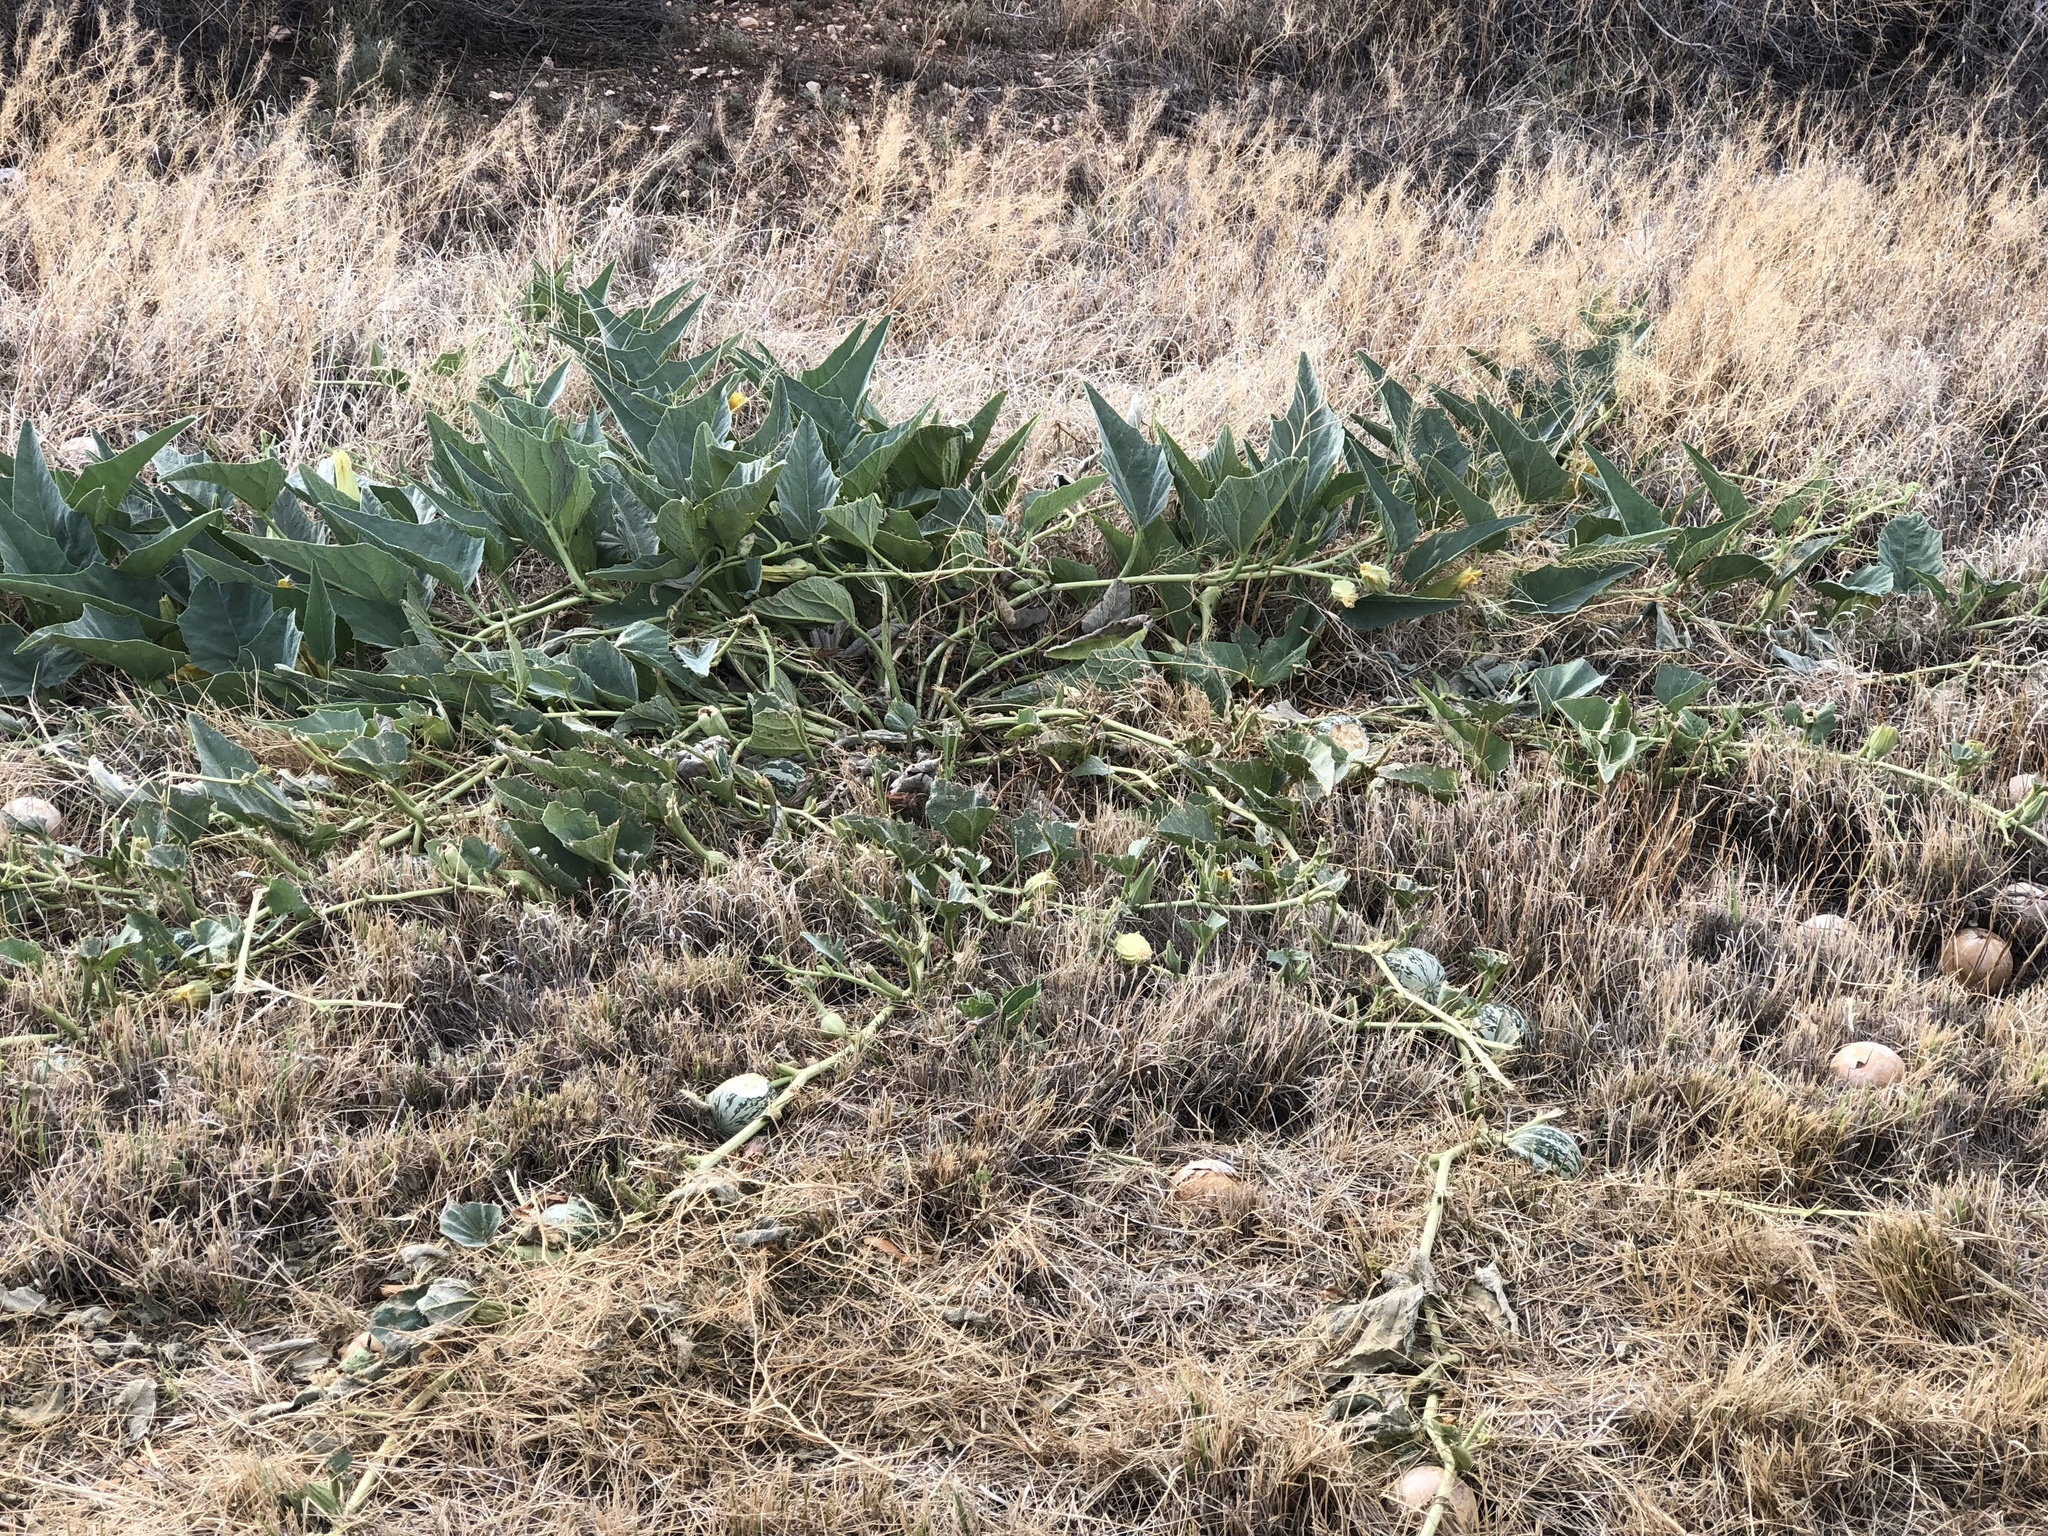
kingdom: Plantae
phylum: Tracheophyta
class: Magnoliopsida
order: Cucurbitales
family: Cucurbitaceae
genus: Cucurbita
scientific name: Cucurbita foetidissima
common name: Buffalo gourd
